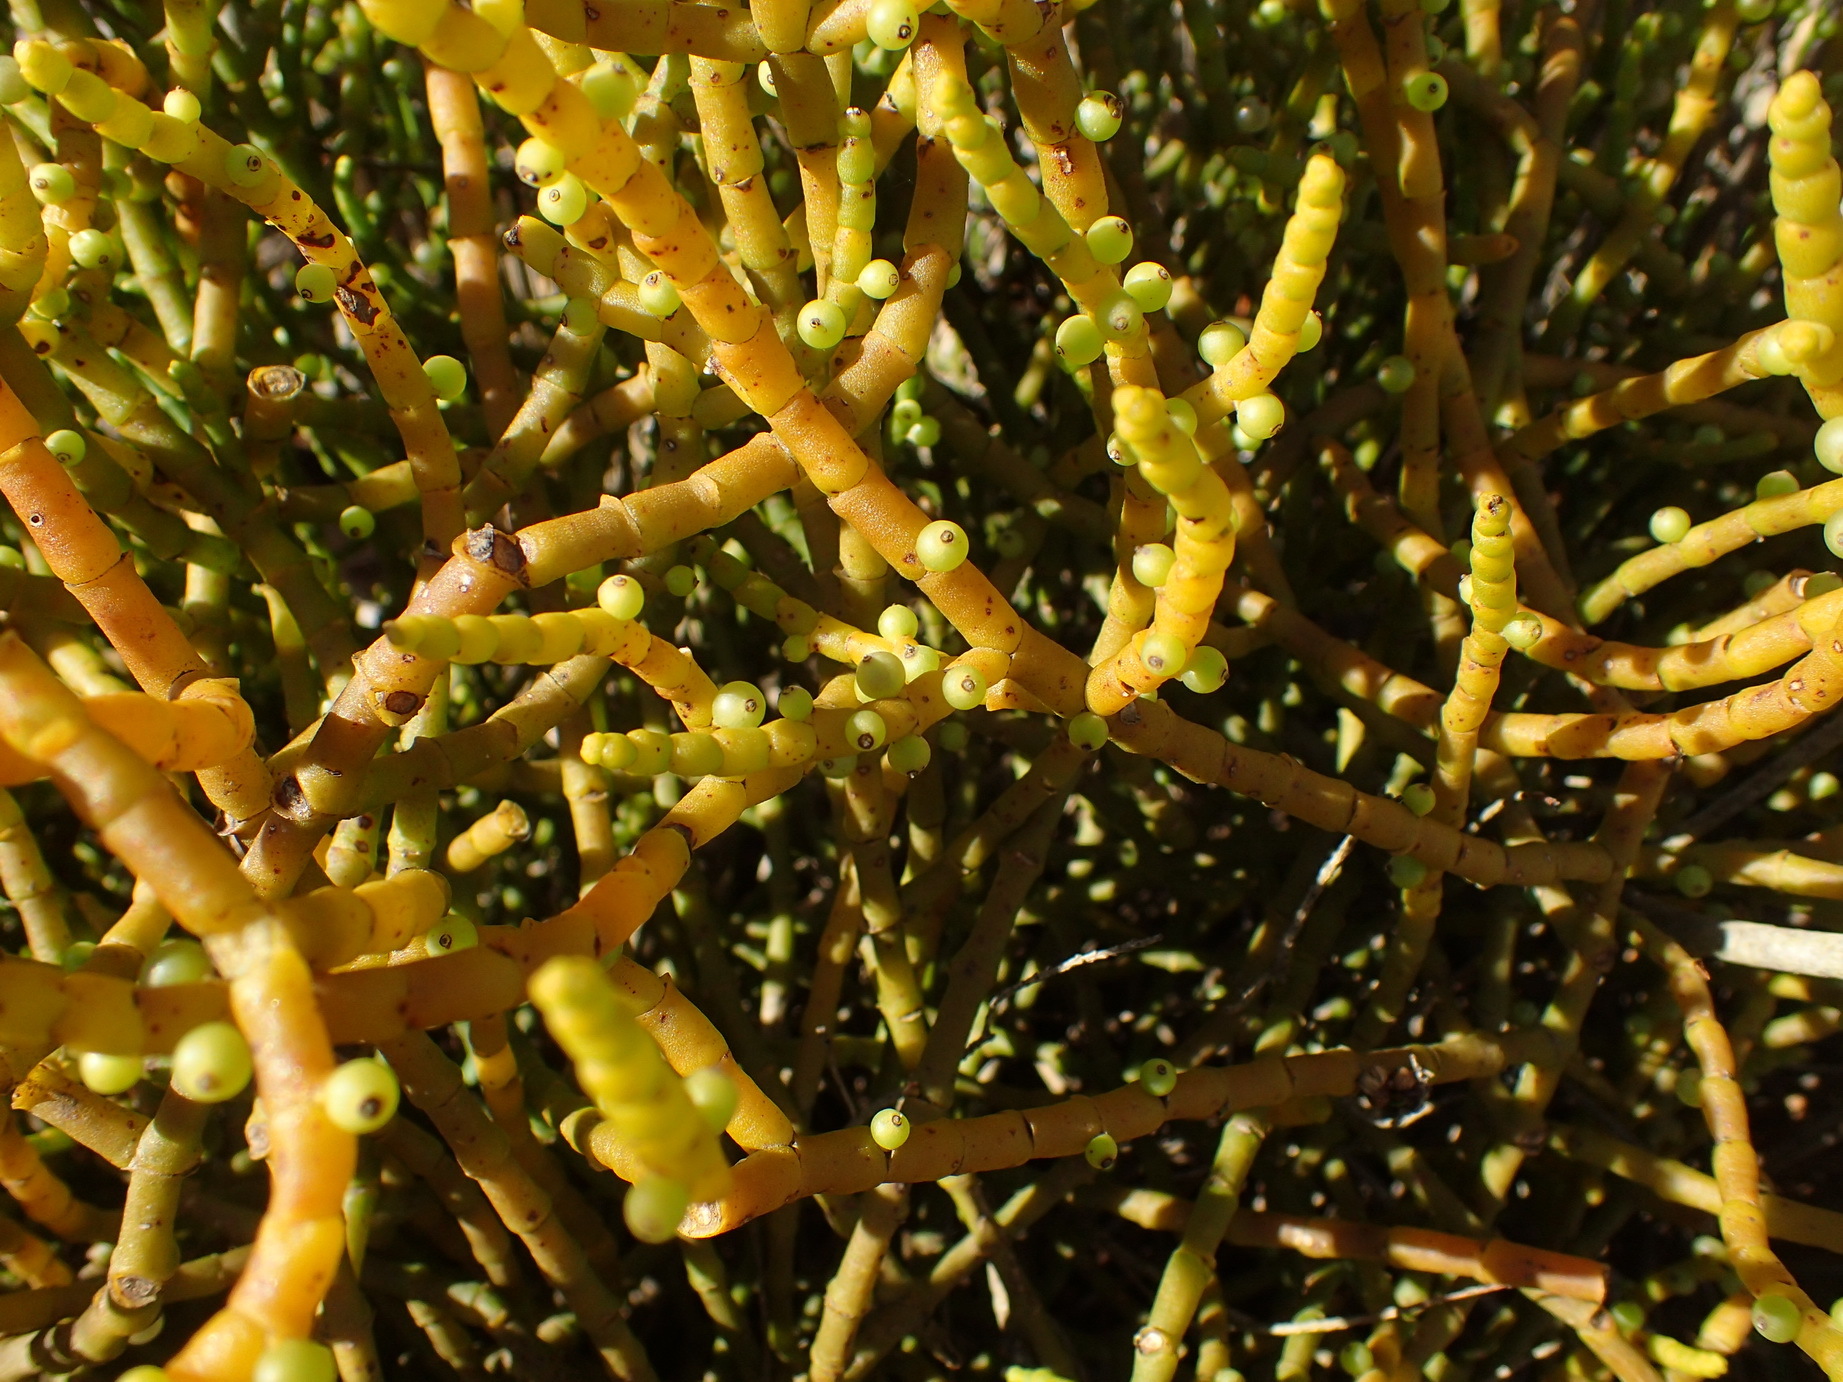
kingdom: Plantae
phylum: Tracheophyta
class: Magnoliopsida
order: Santalales
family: Viscaceae
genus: Viscum
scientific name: Viscum capense
